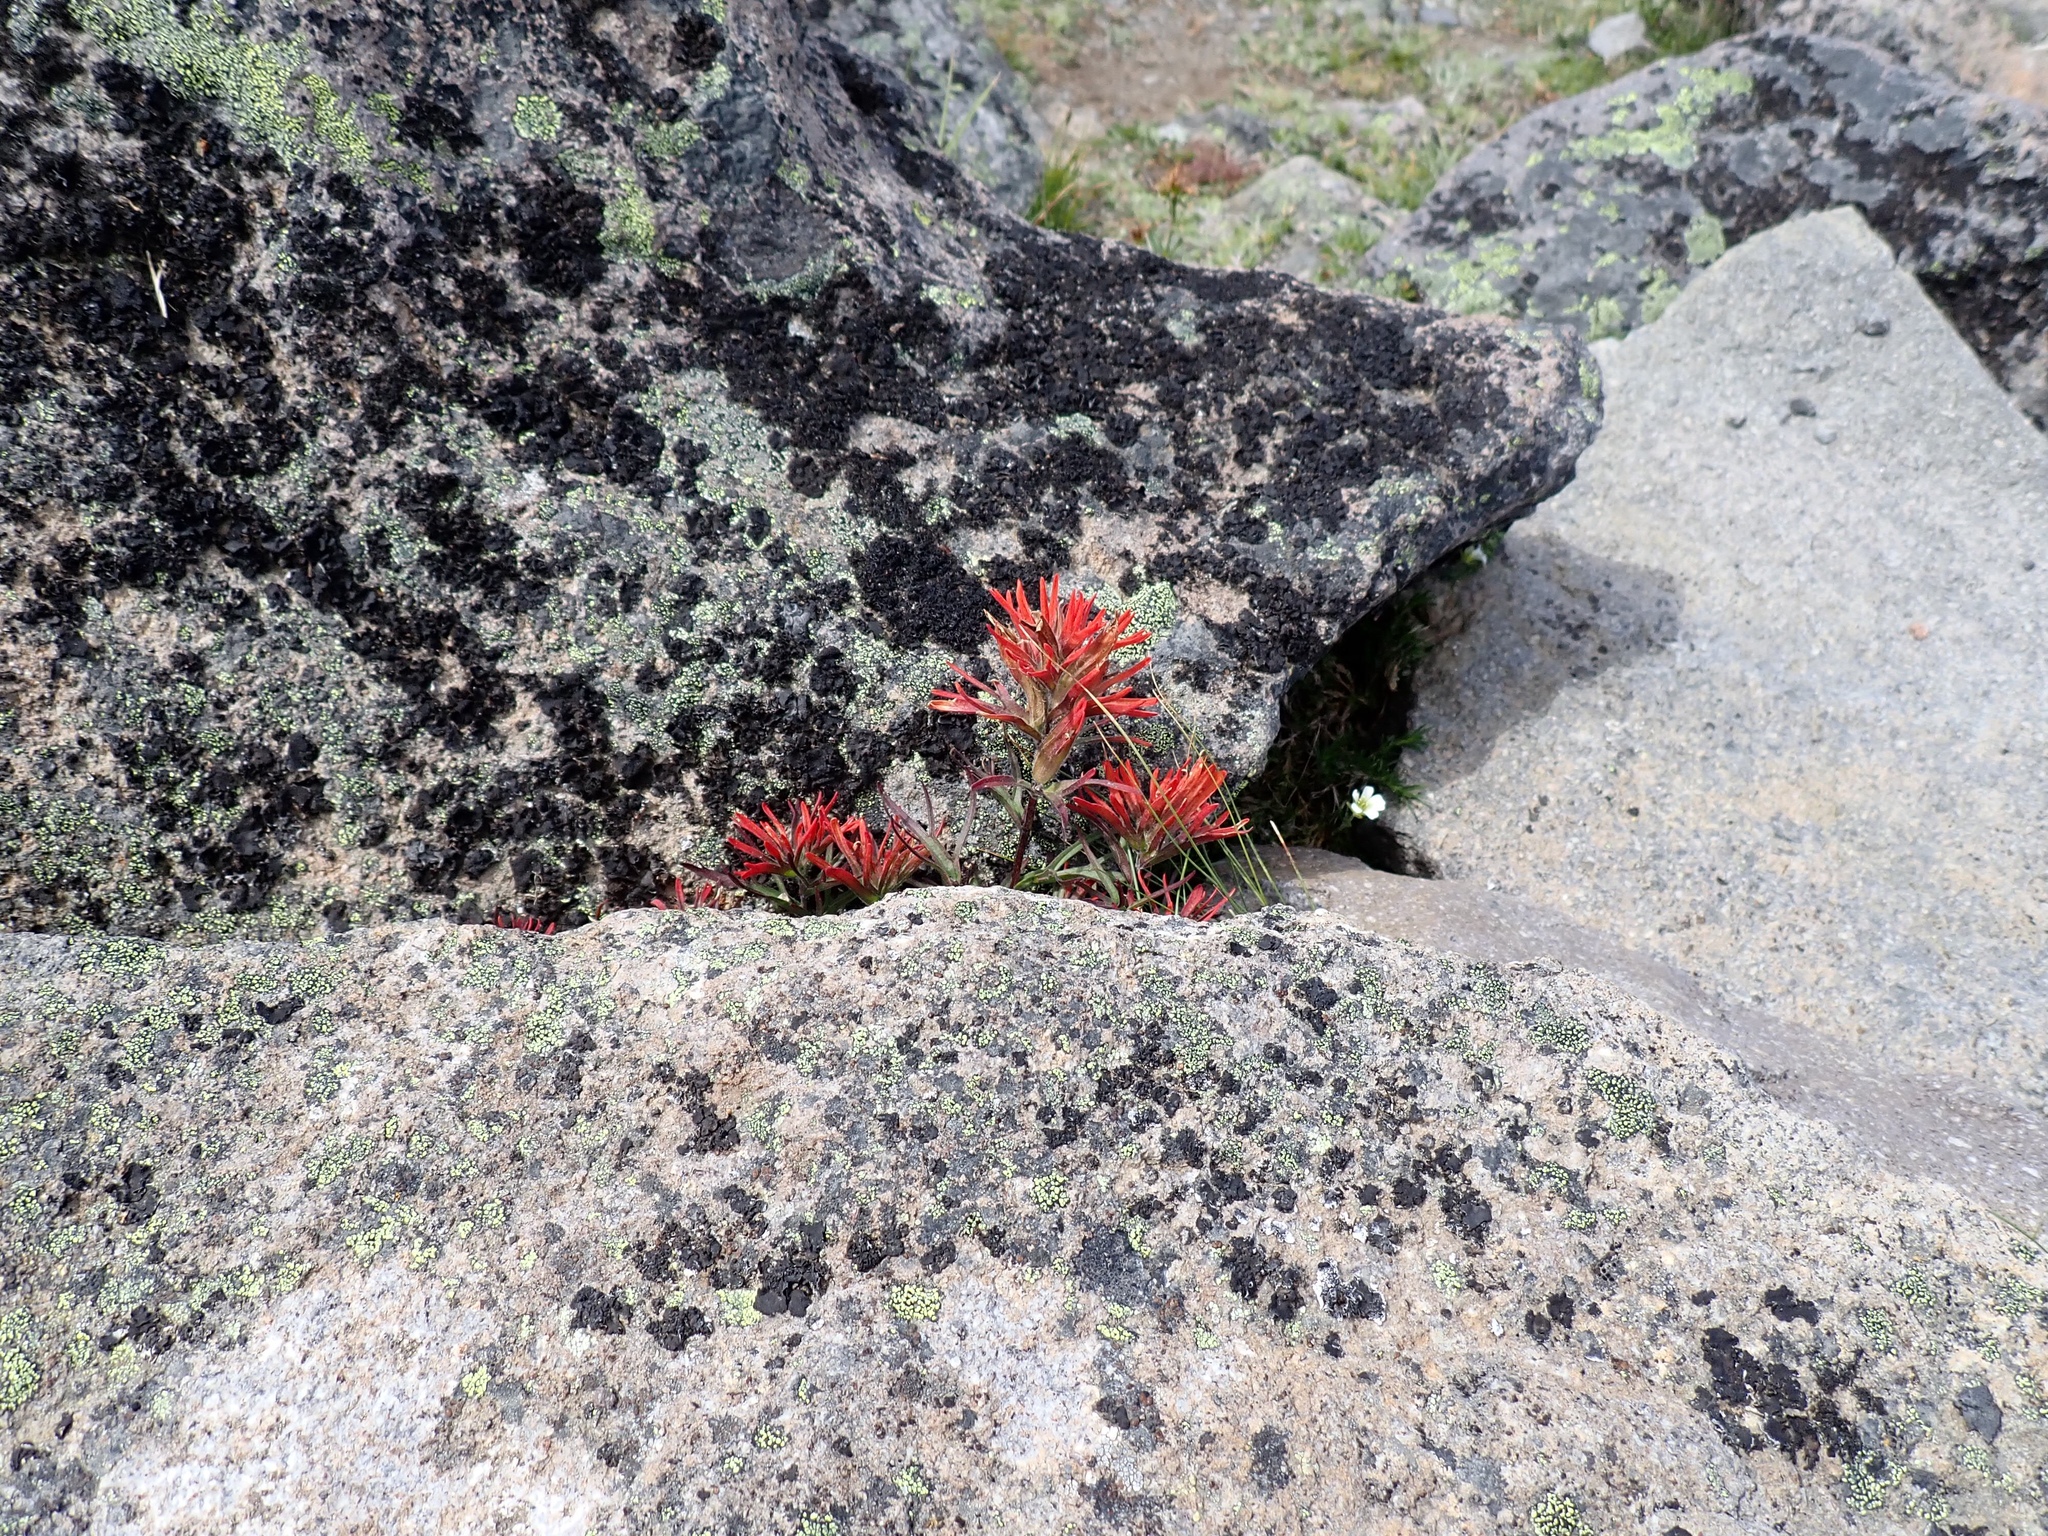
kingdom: Plantae
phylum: Tracheophyta
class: Magnoliopsida
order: Lamiales
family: Orobanchaceae
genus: Castilleja
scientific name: Castilleja rupicola
